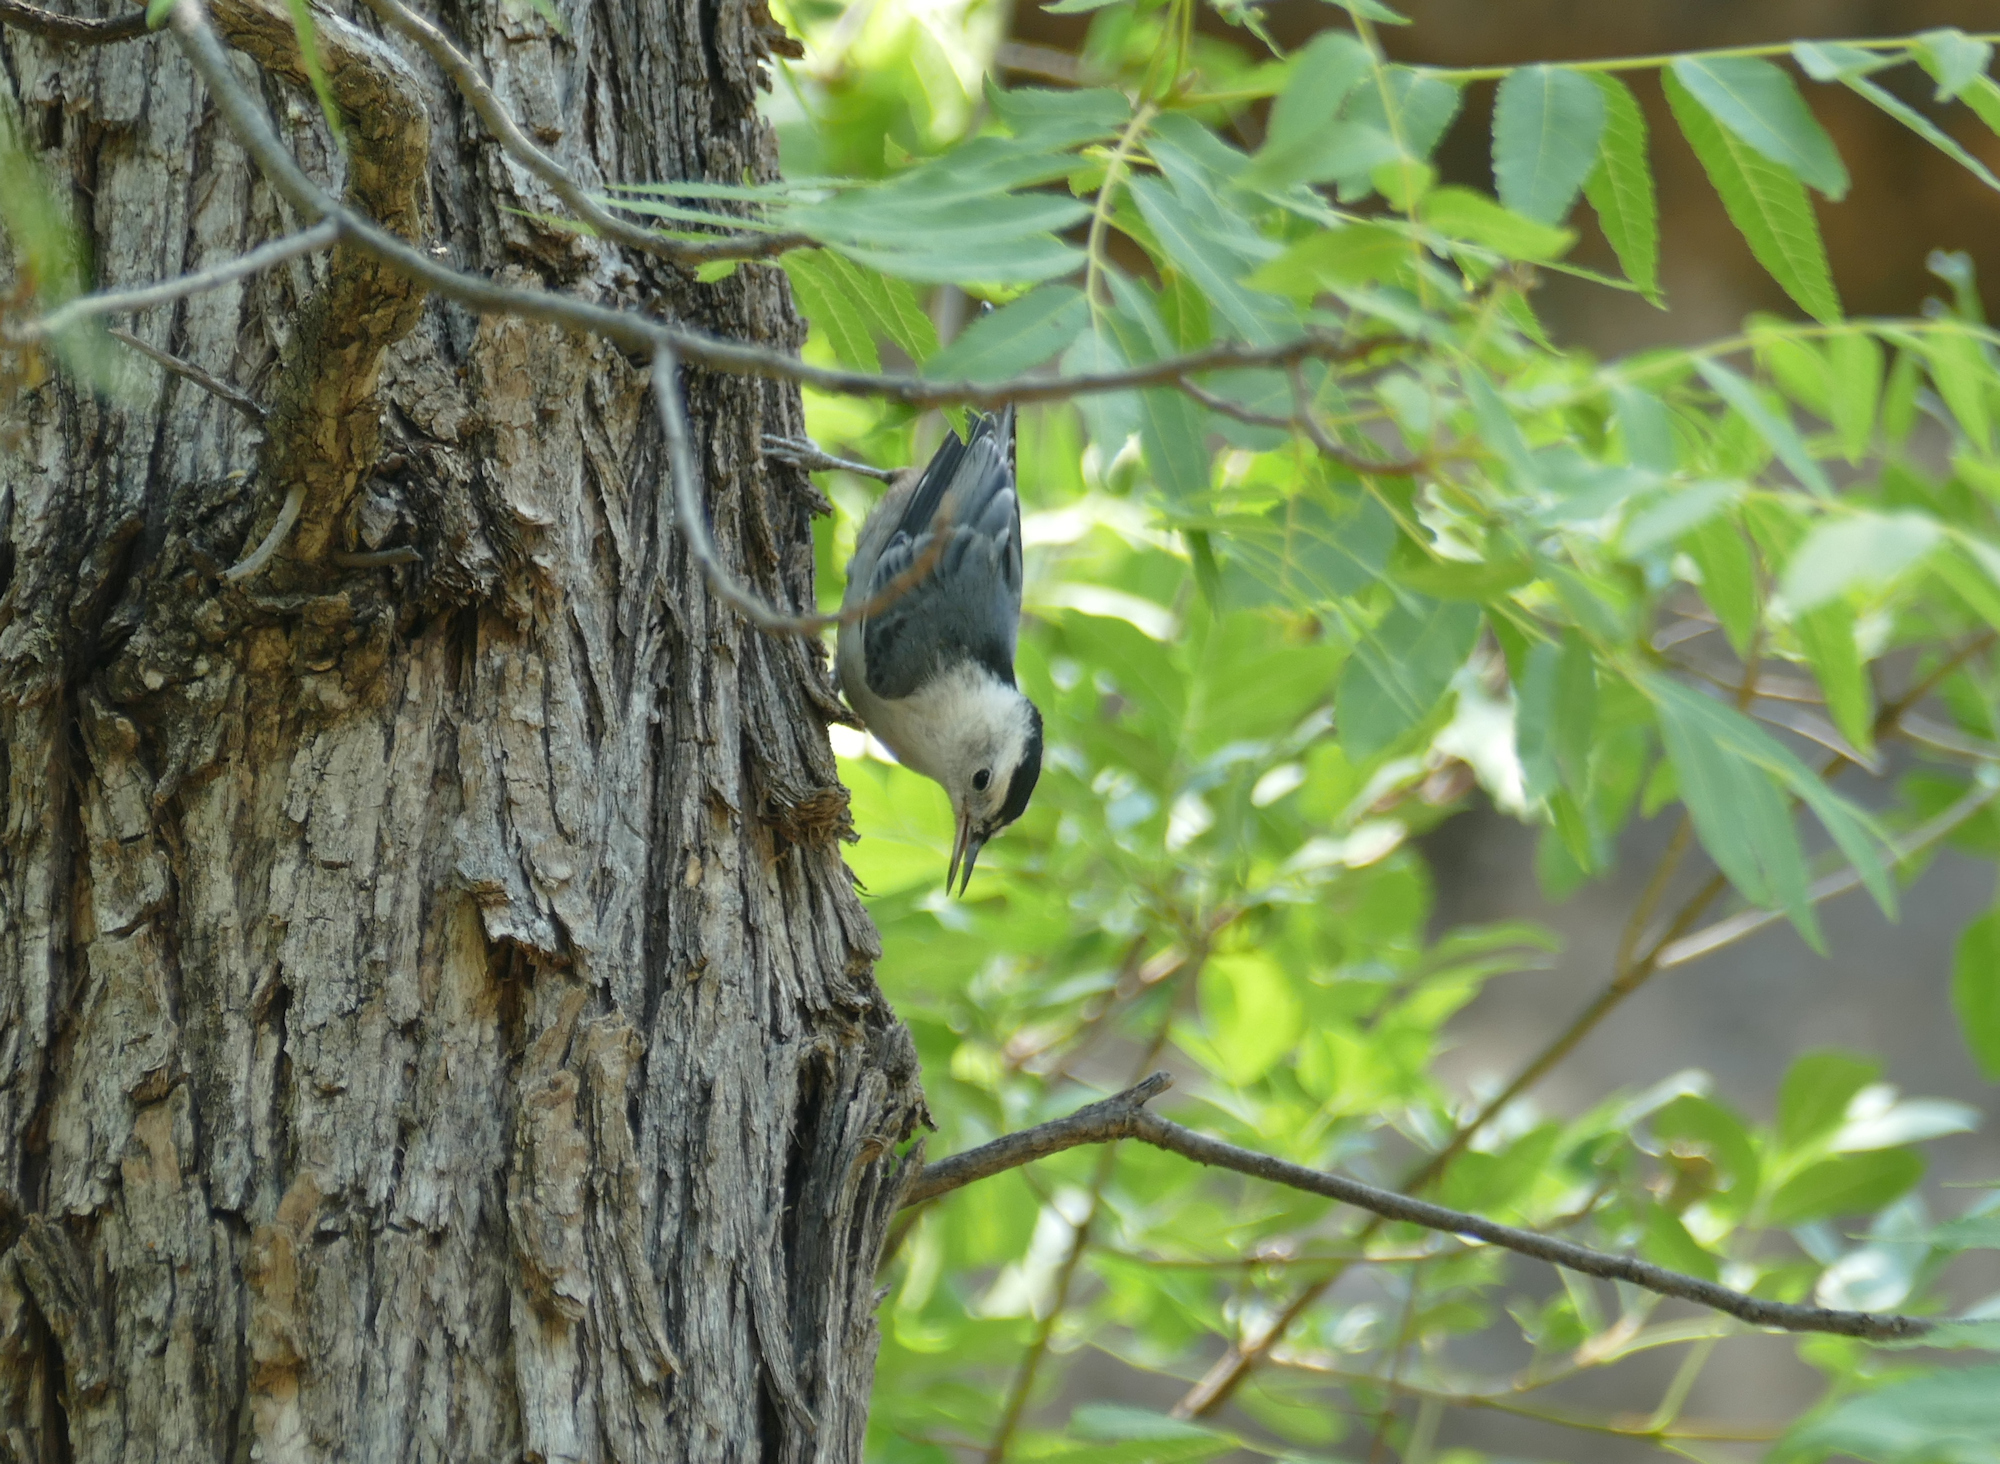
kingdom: Animalia
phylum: Chordata
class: Aves
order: Passeriformes
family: Sittidae
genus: Sitta
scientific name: Sitta carolinensis
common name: White-breasted nuthatch
